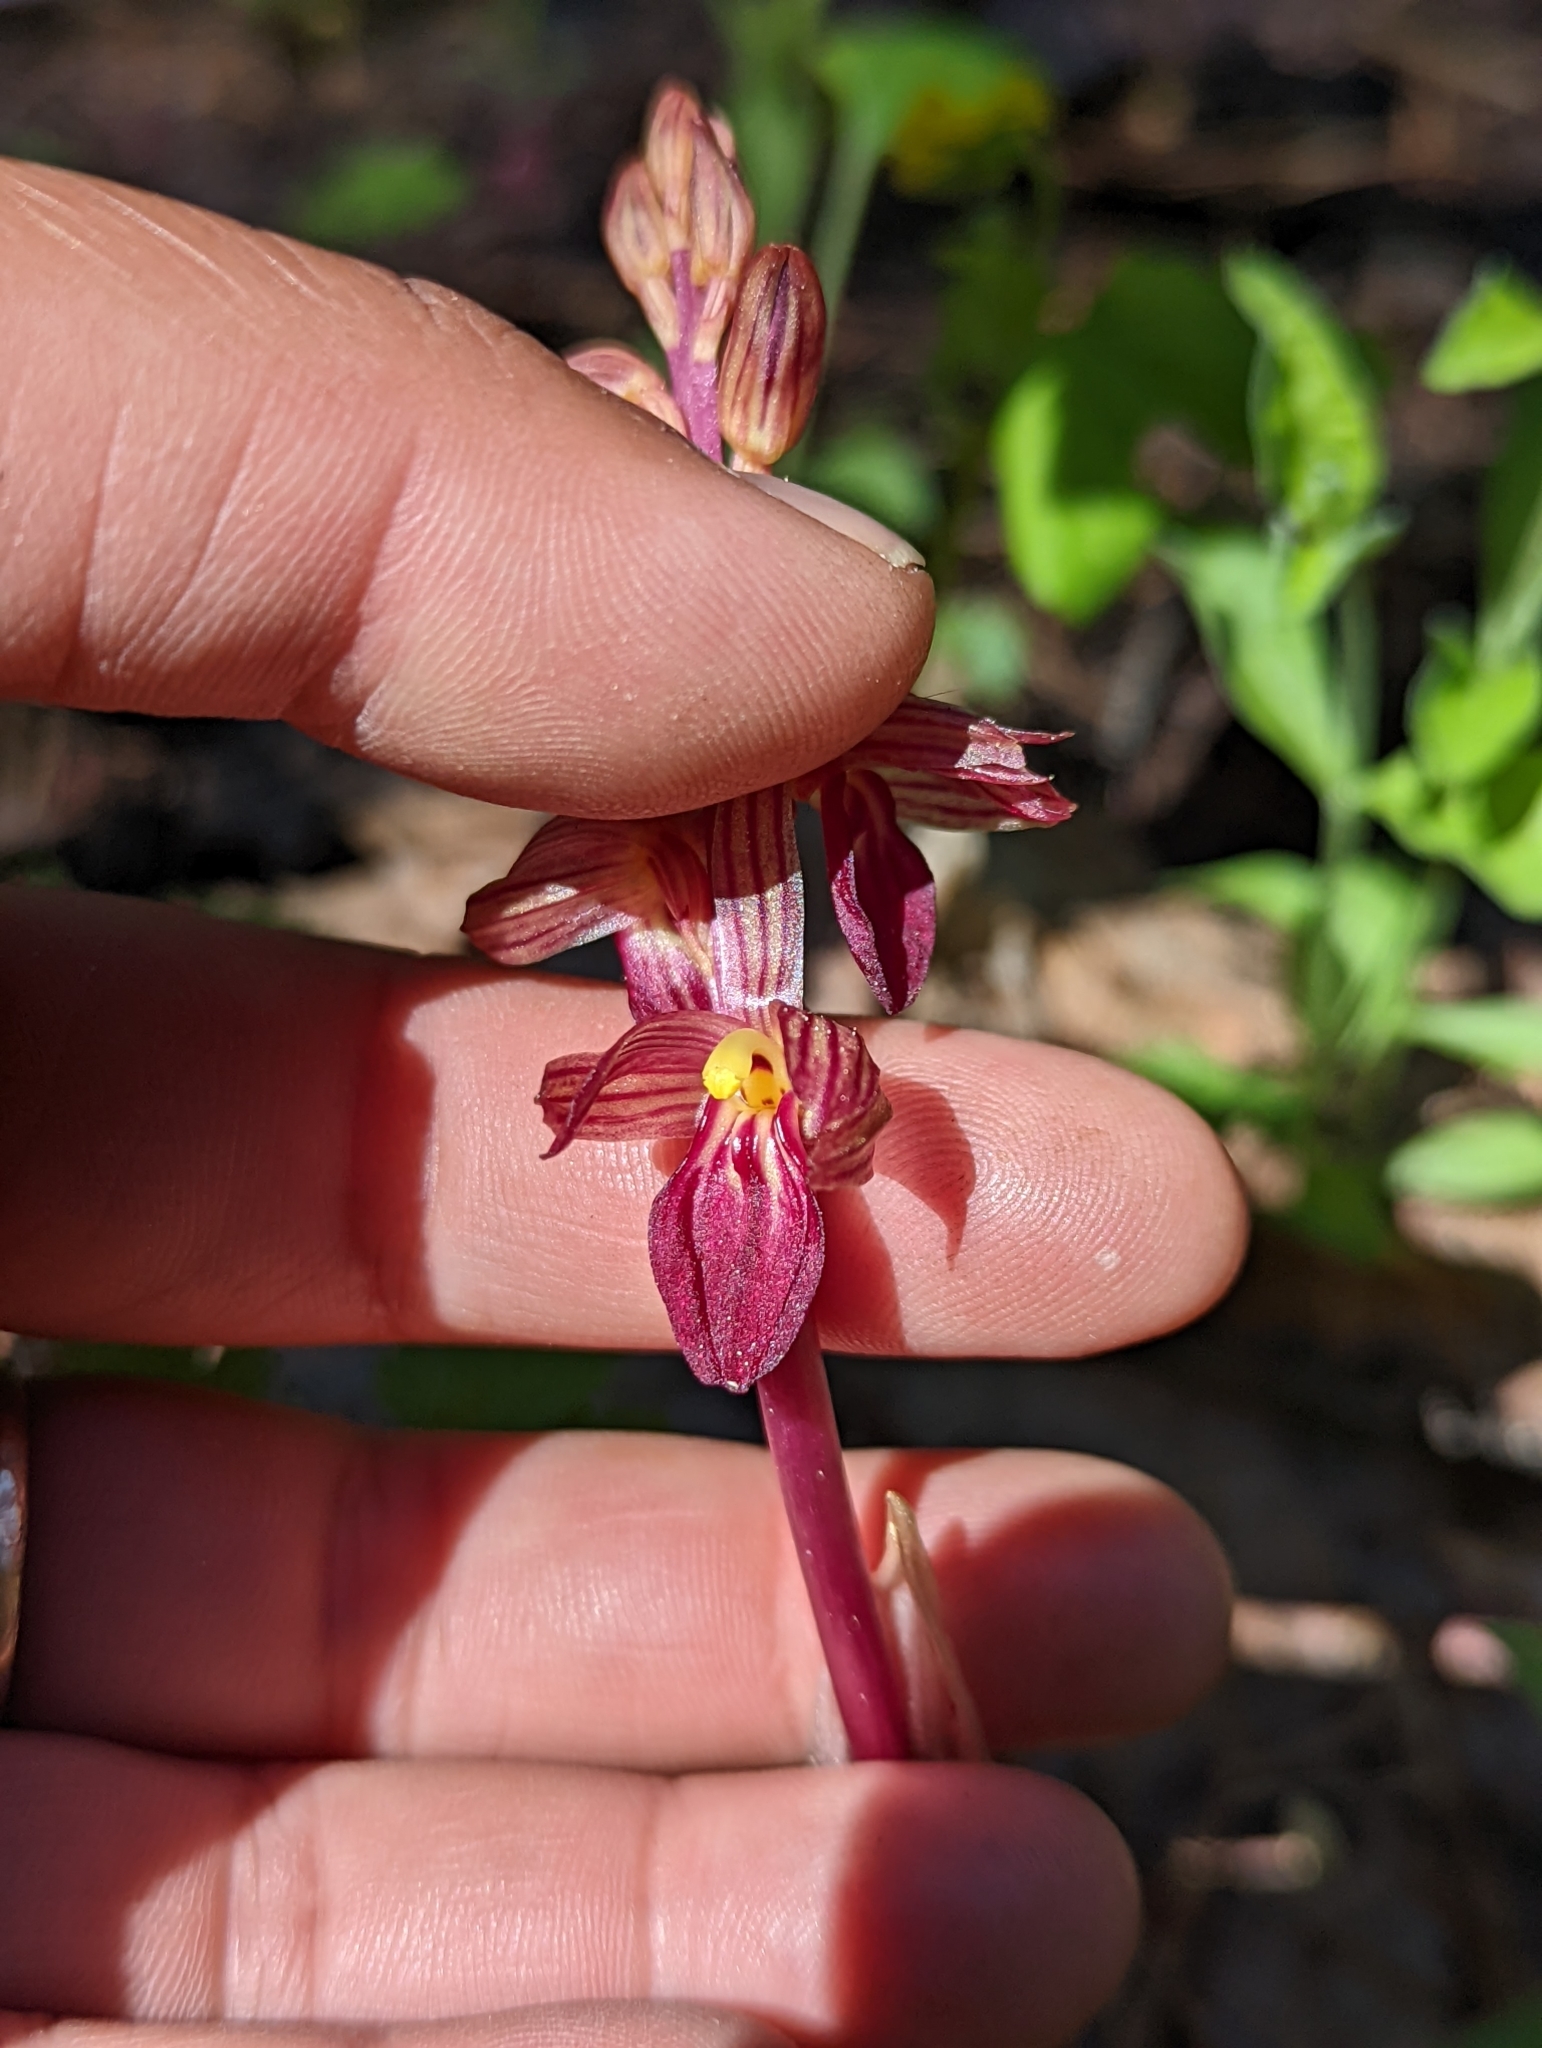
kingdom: Plantae
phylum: Tracheophyta
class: Liliopsida
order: Asparagales
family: Orchidaceae
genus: Corallorhiza
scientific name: Corallorhiza striata
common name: Hooded coralroot
